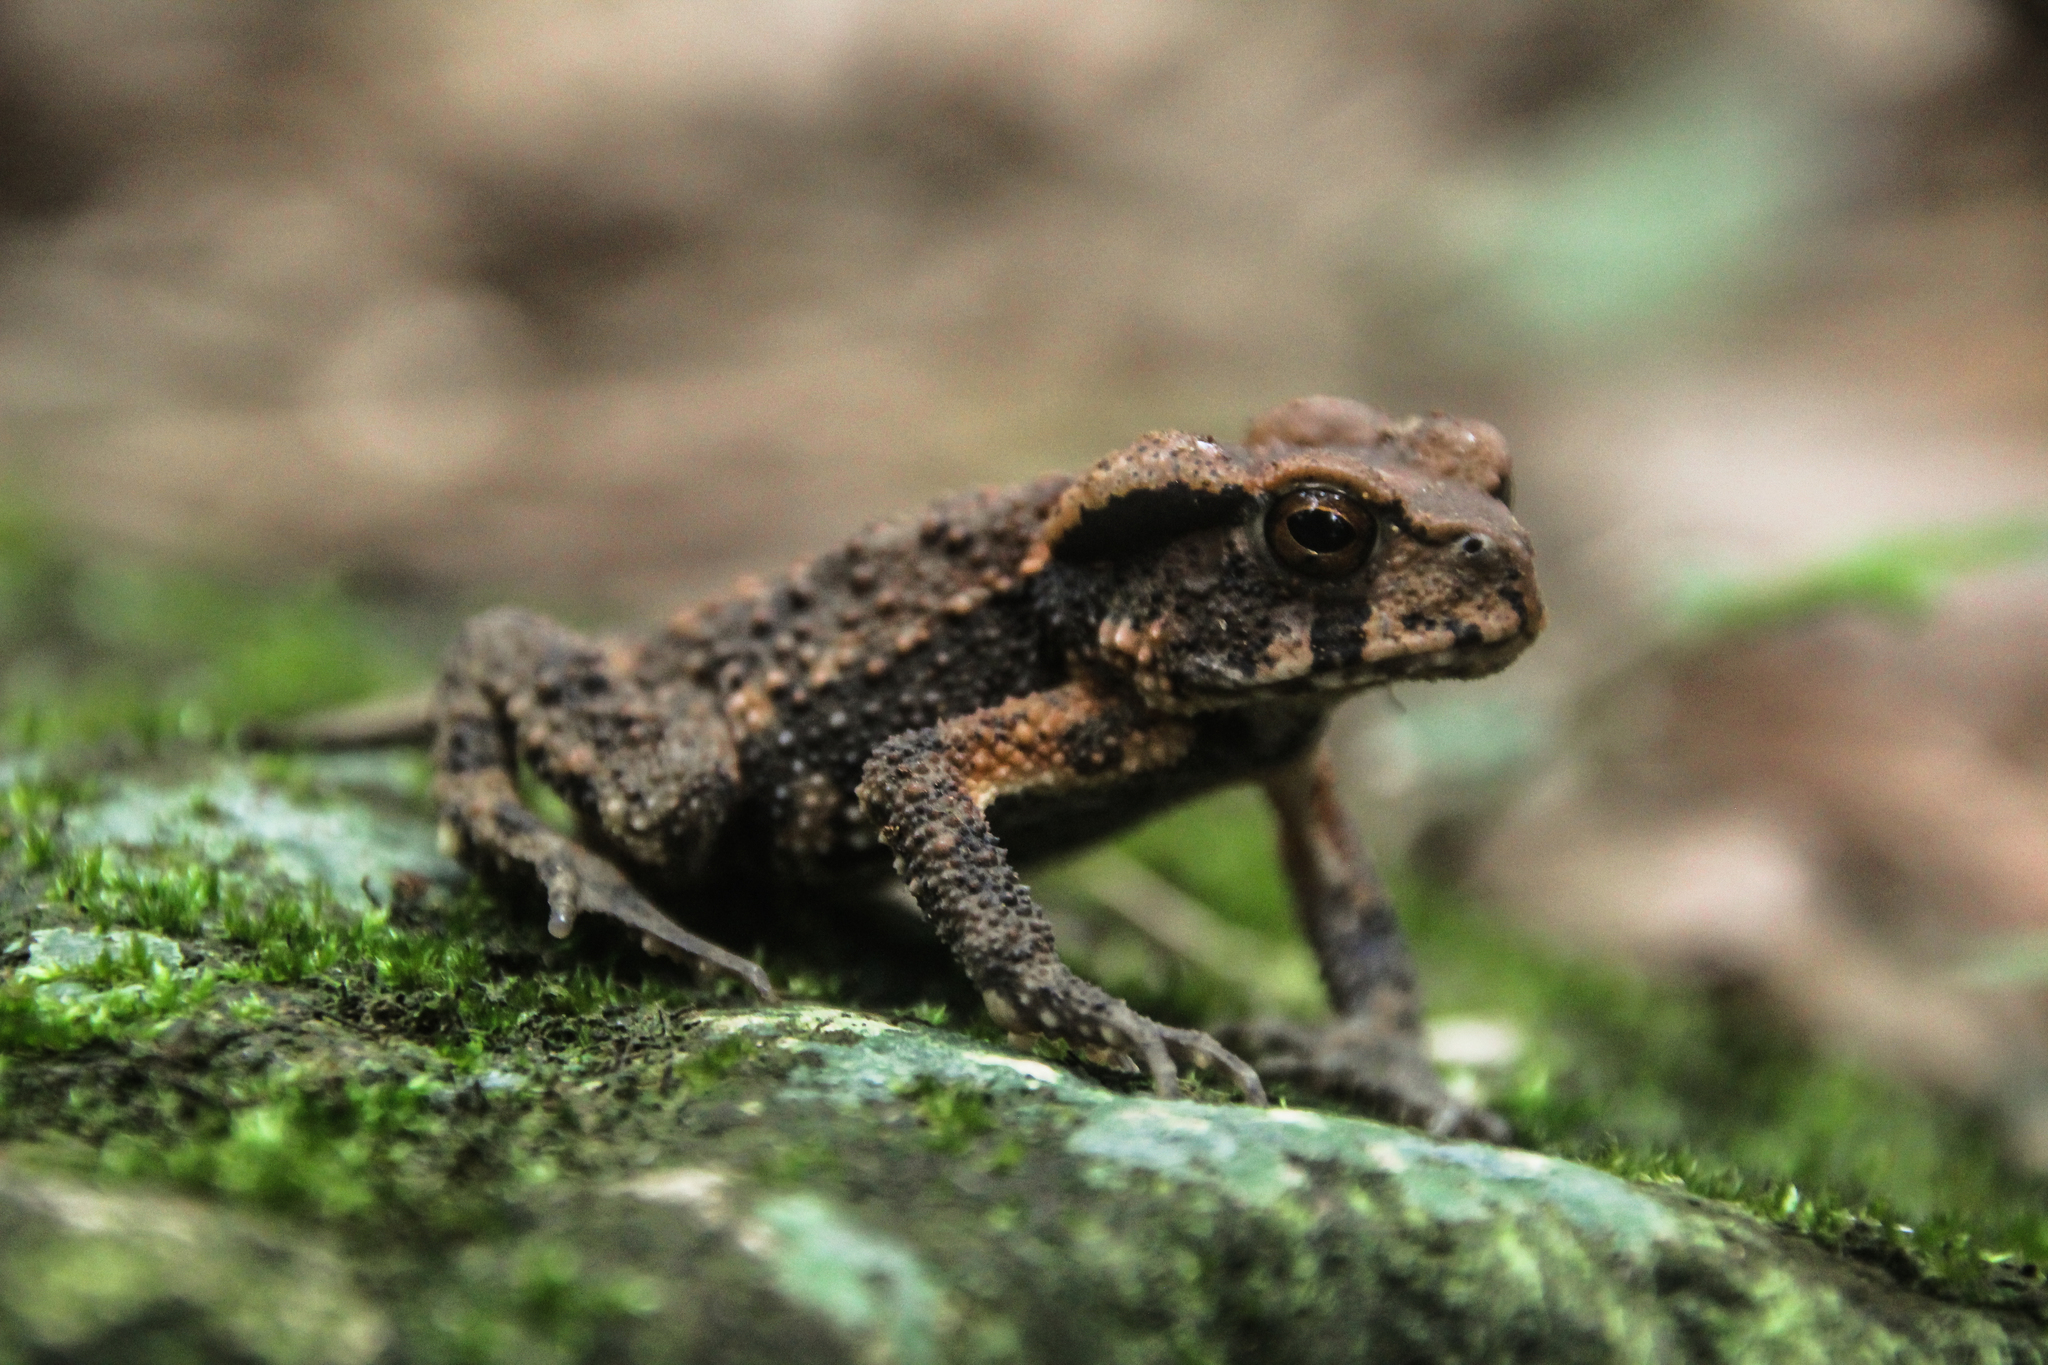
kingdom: Animalia
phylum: Chordata
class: Amphibia
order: Anura
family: Bufonidae
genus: Bufo
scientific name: Bufo bankorensis
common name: Bankor toad
